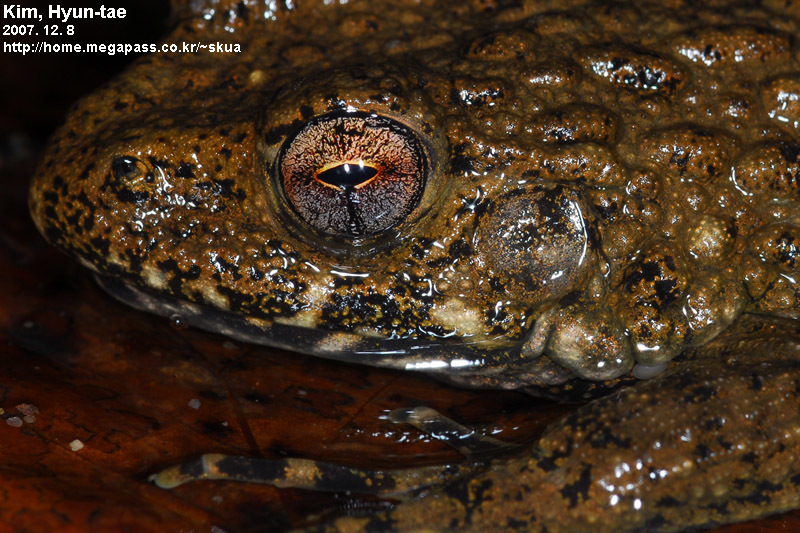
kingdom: Animalia
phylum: Chordata
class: Amphibia
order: Anura
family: Ranidae
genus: Glandirana
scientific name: Glandirana emeljanovi
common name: Northeast china rough-skinned frog
